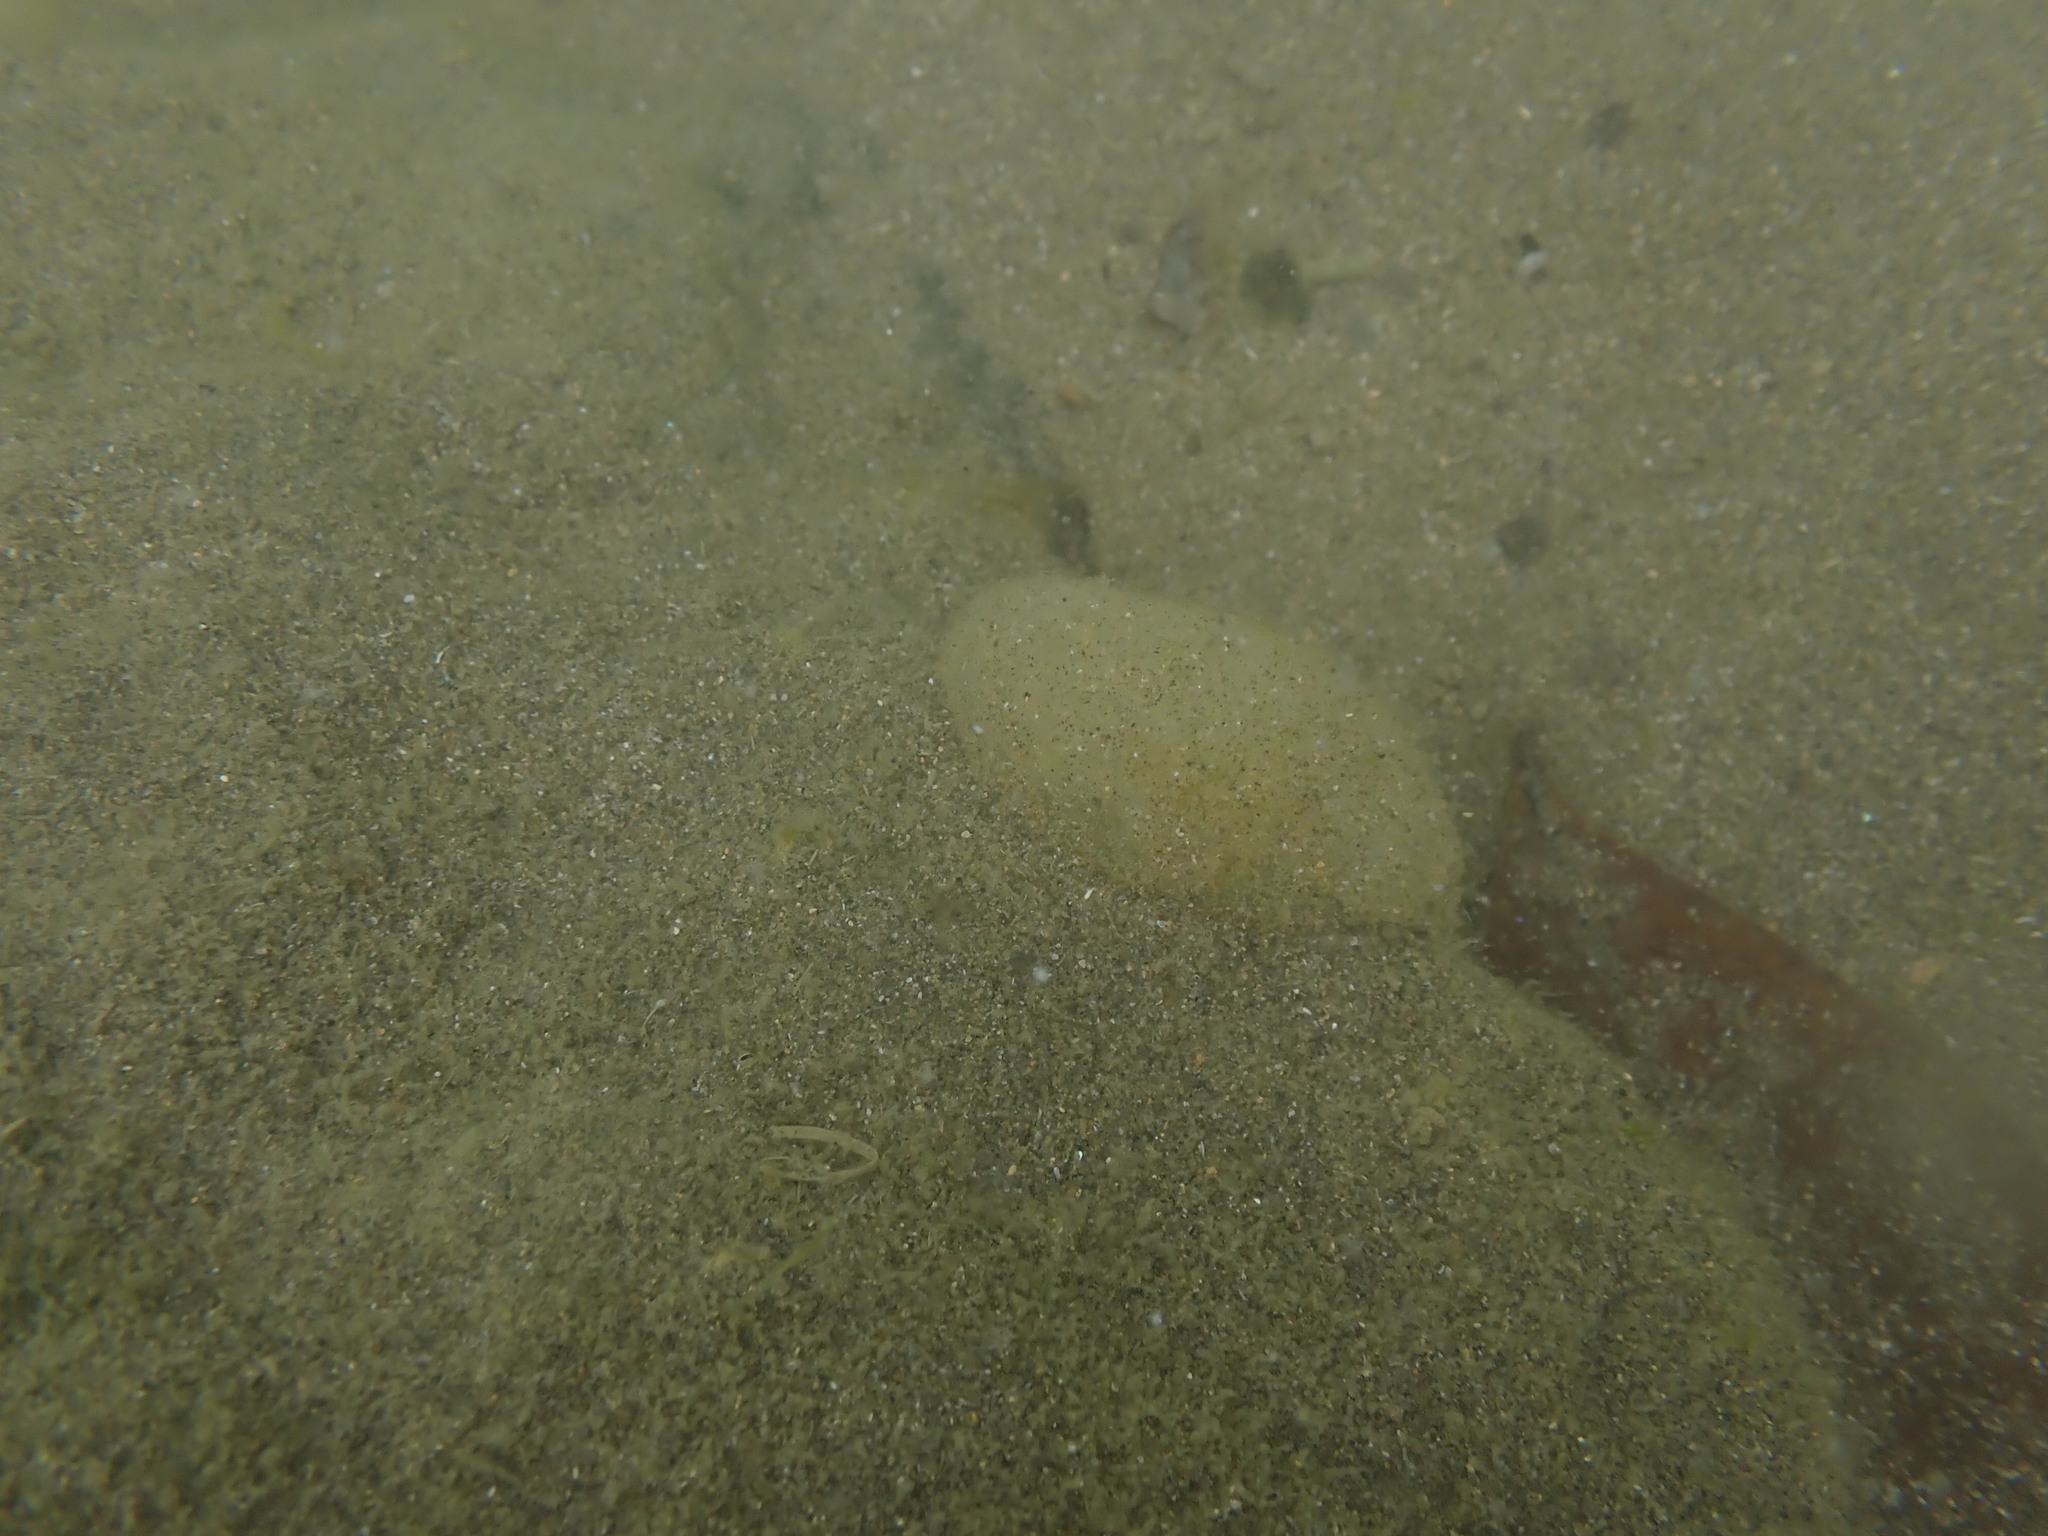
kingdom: Animalia
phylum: Mollusca
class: Gastropoda
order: Cephalaspidea
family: Haminoeidae
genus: Papawera
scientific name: Papawera zelandiae
